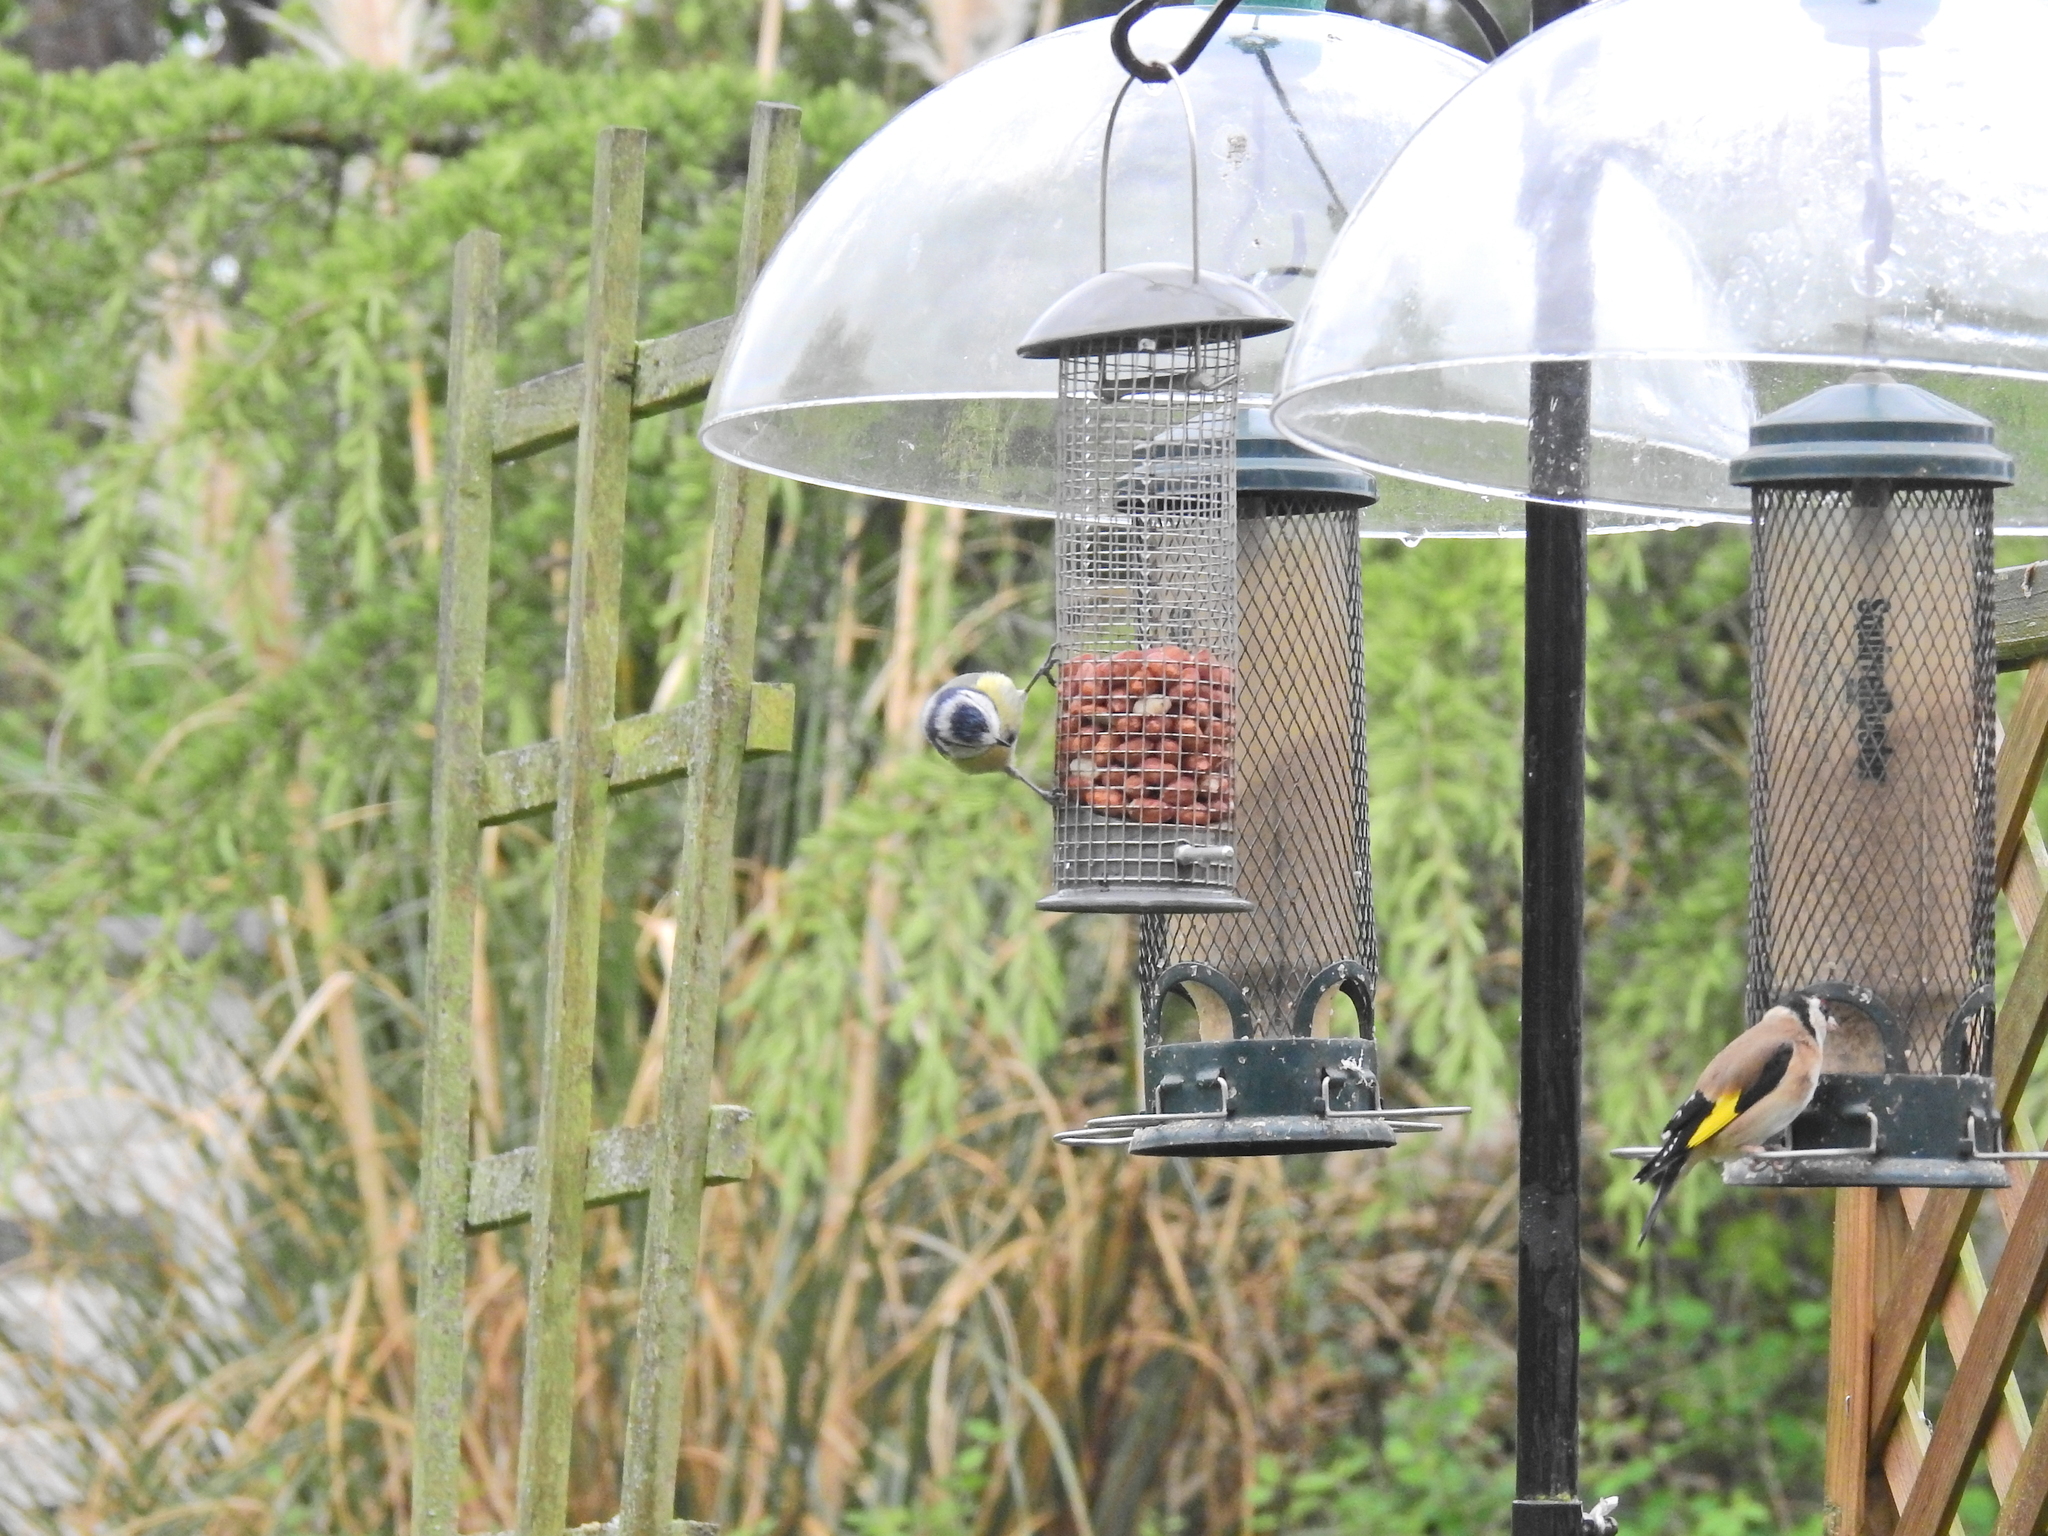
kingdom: Animalia
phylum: Chordata
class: Aves
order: Passeriformes
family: Paridae
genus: Cyanistes
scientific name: Cyanistes caeruleus
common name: Eurasian blue tit
